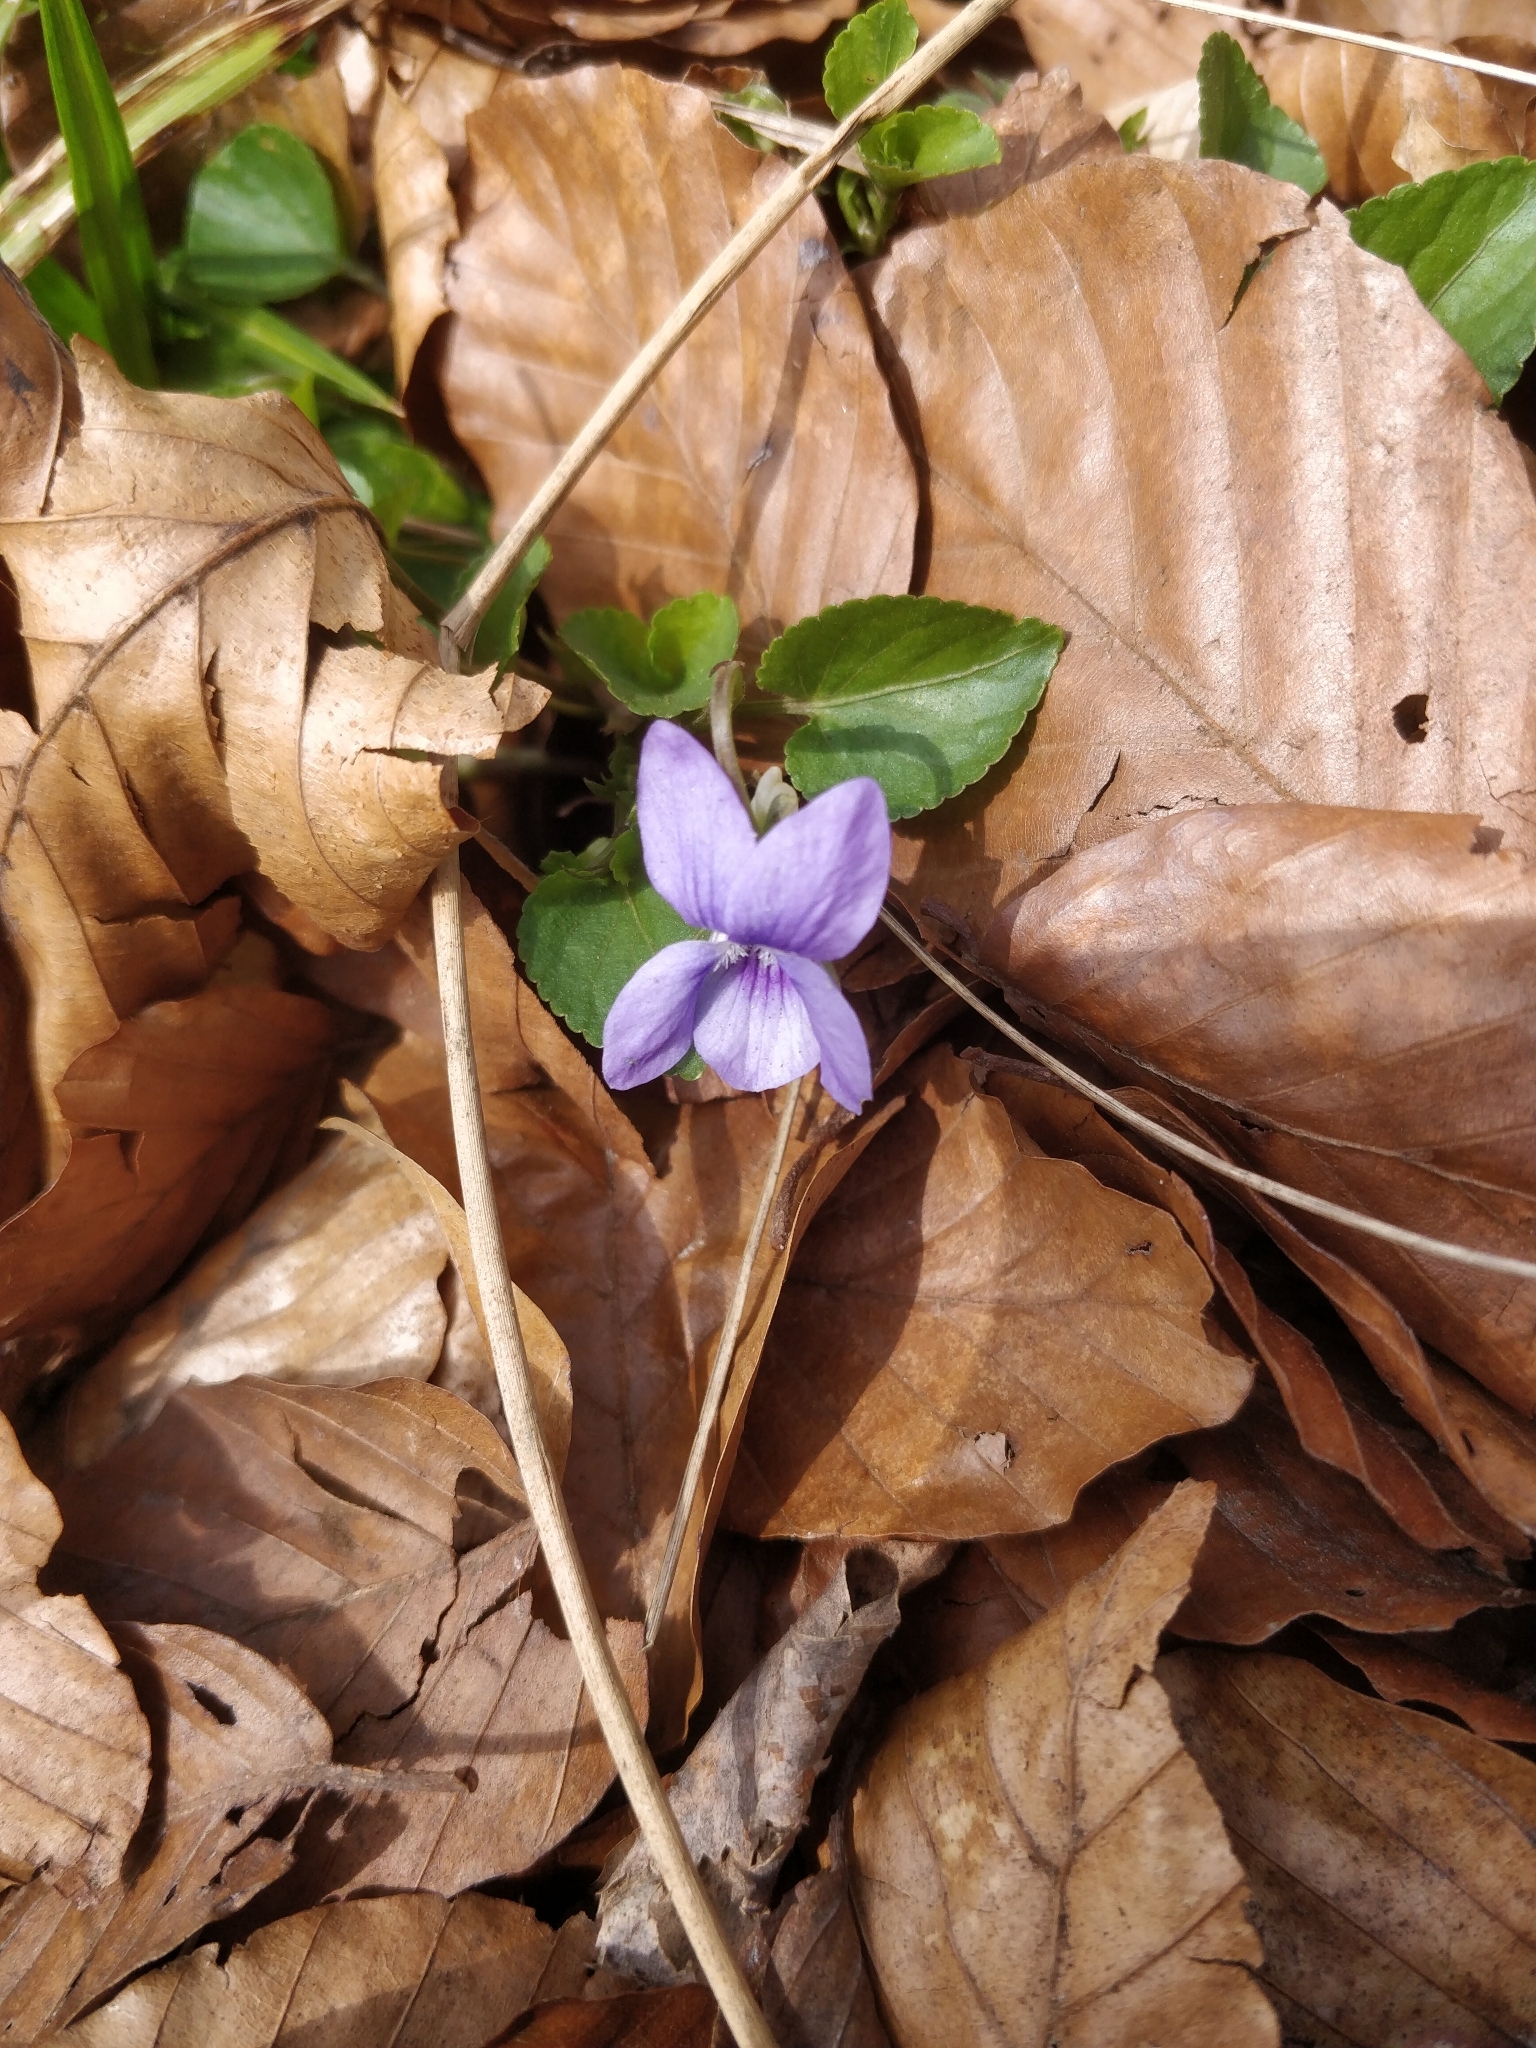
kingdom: Plantae
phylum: Tracheophyta
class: Magnoliopsida
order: Malpighiales
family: Violaceae
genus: Viola
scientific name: Viola riviniana
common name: Common dog-violet
